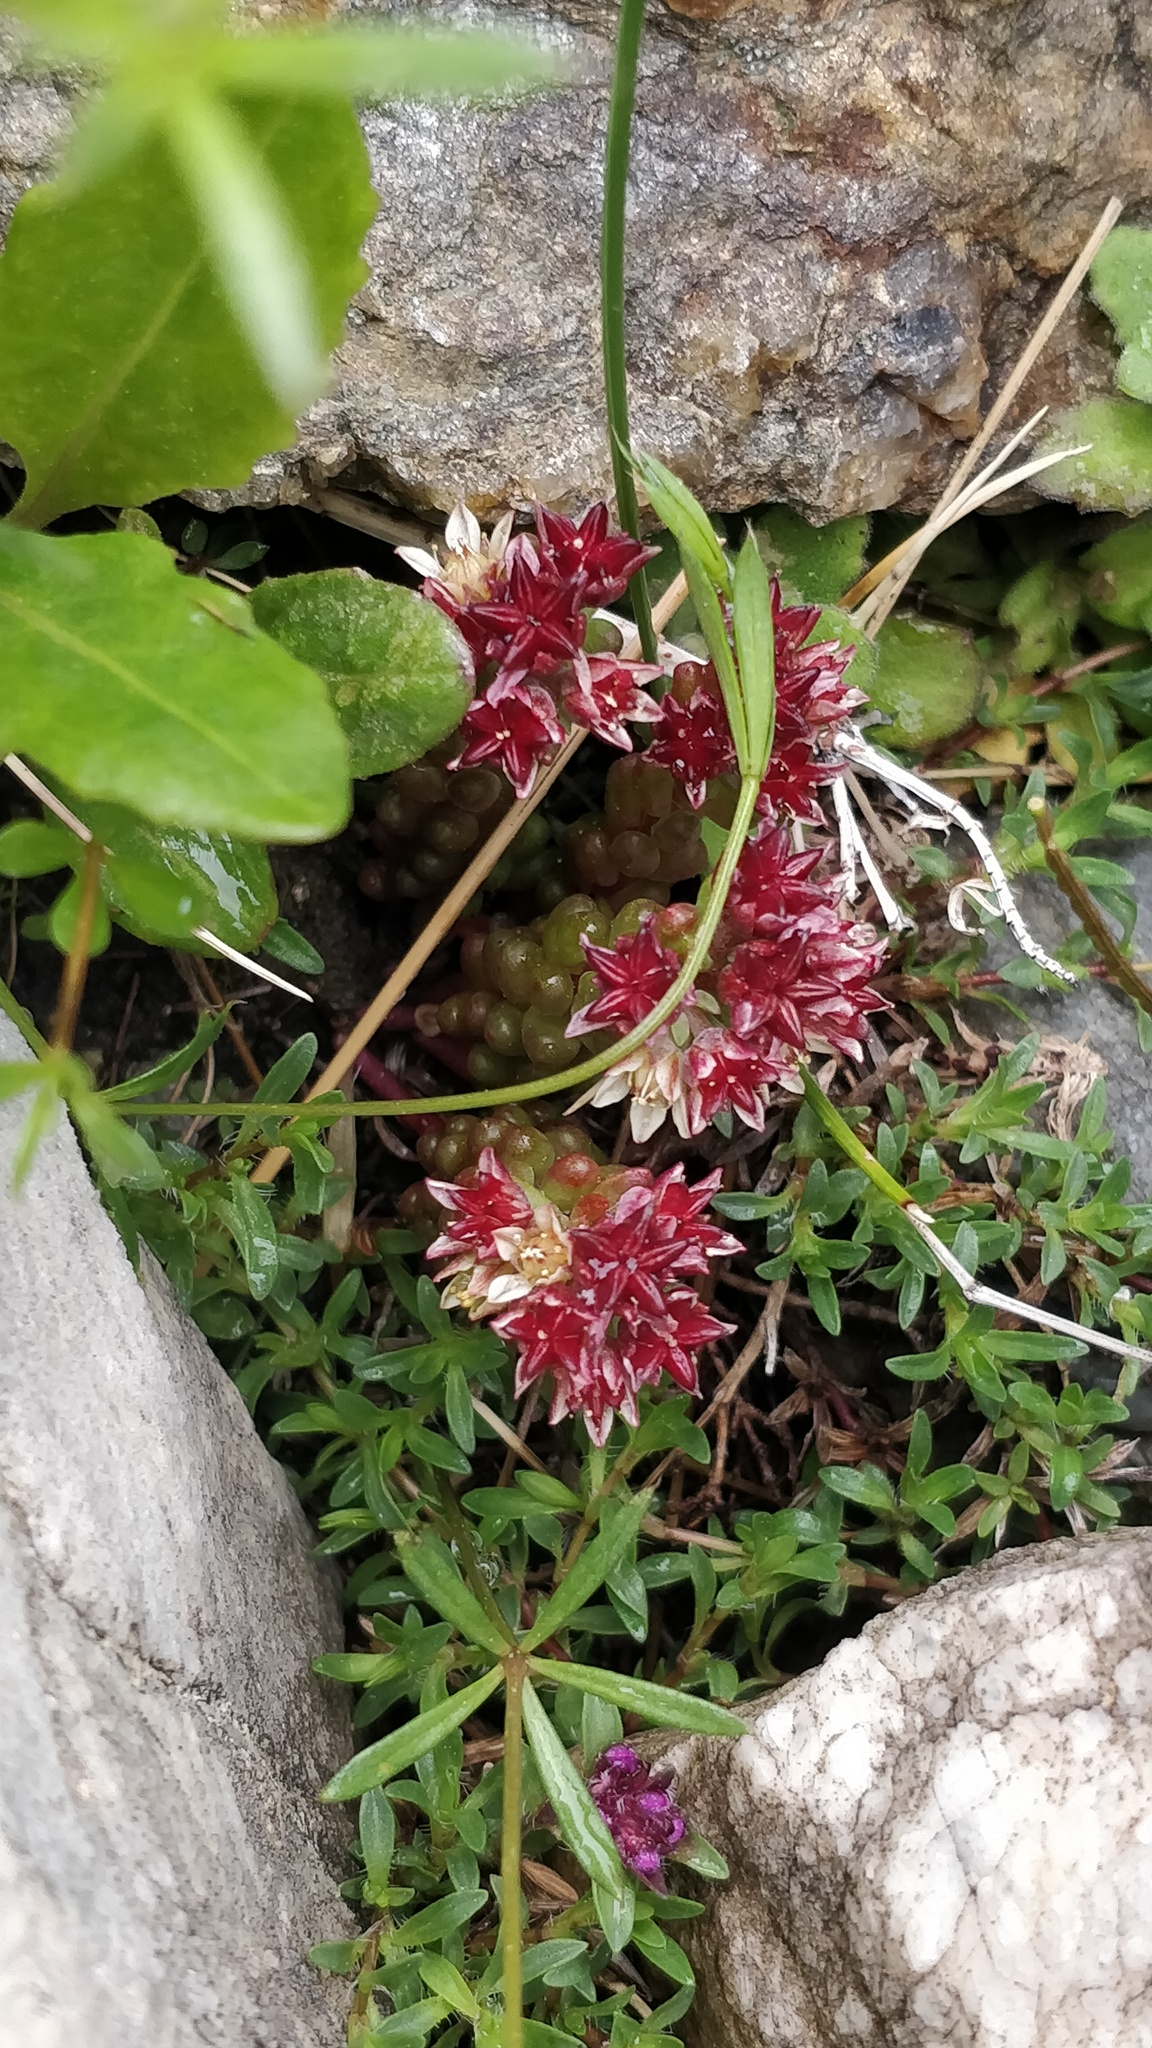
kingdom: Plantae
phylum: Tracheophyta
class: Magnoliopsida
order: Saxifragales
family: Crassulaceae
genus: Sedum
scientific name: Sedum atratum
